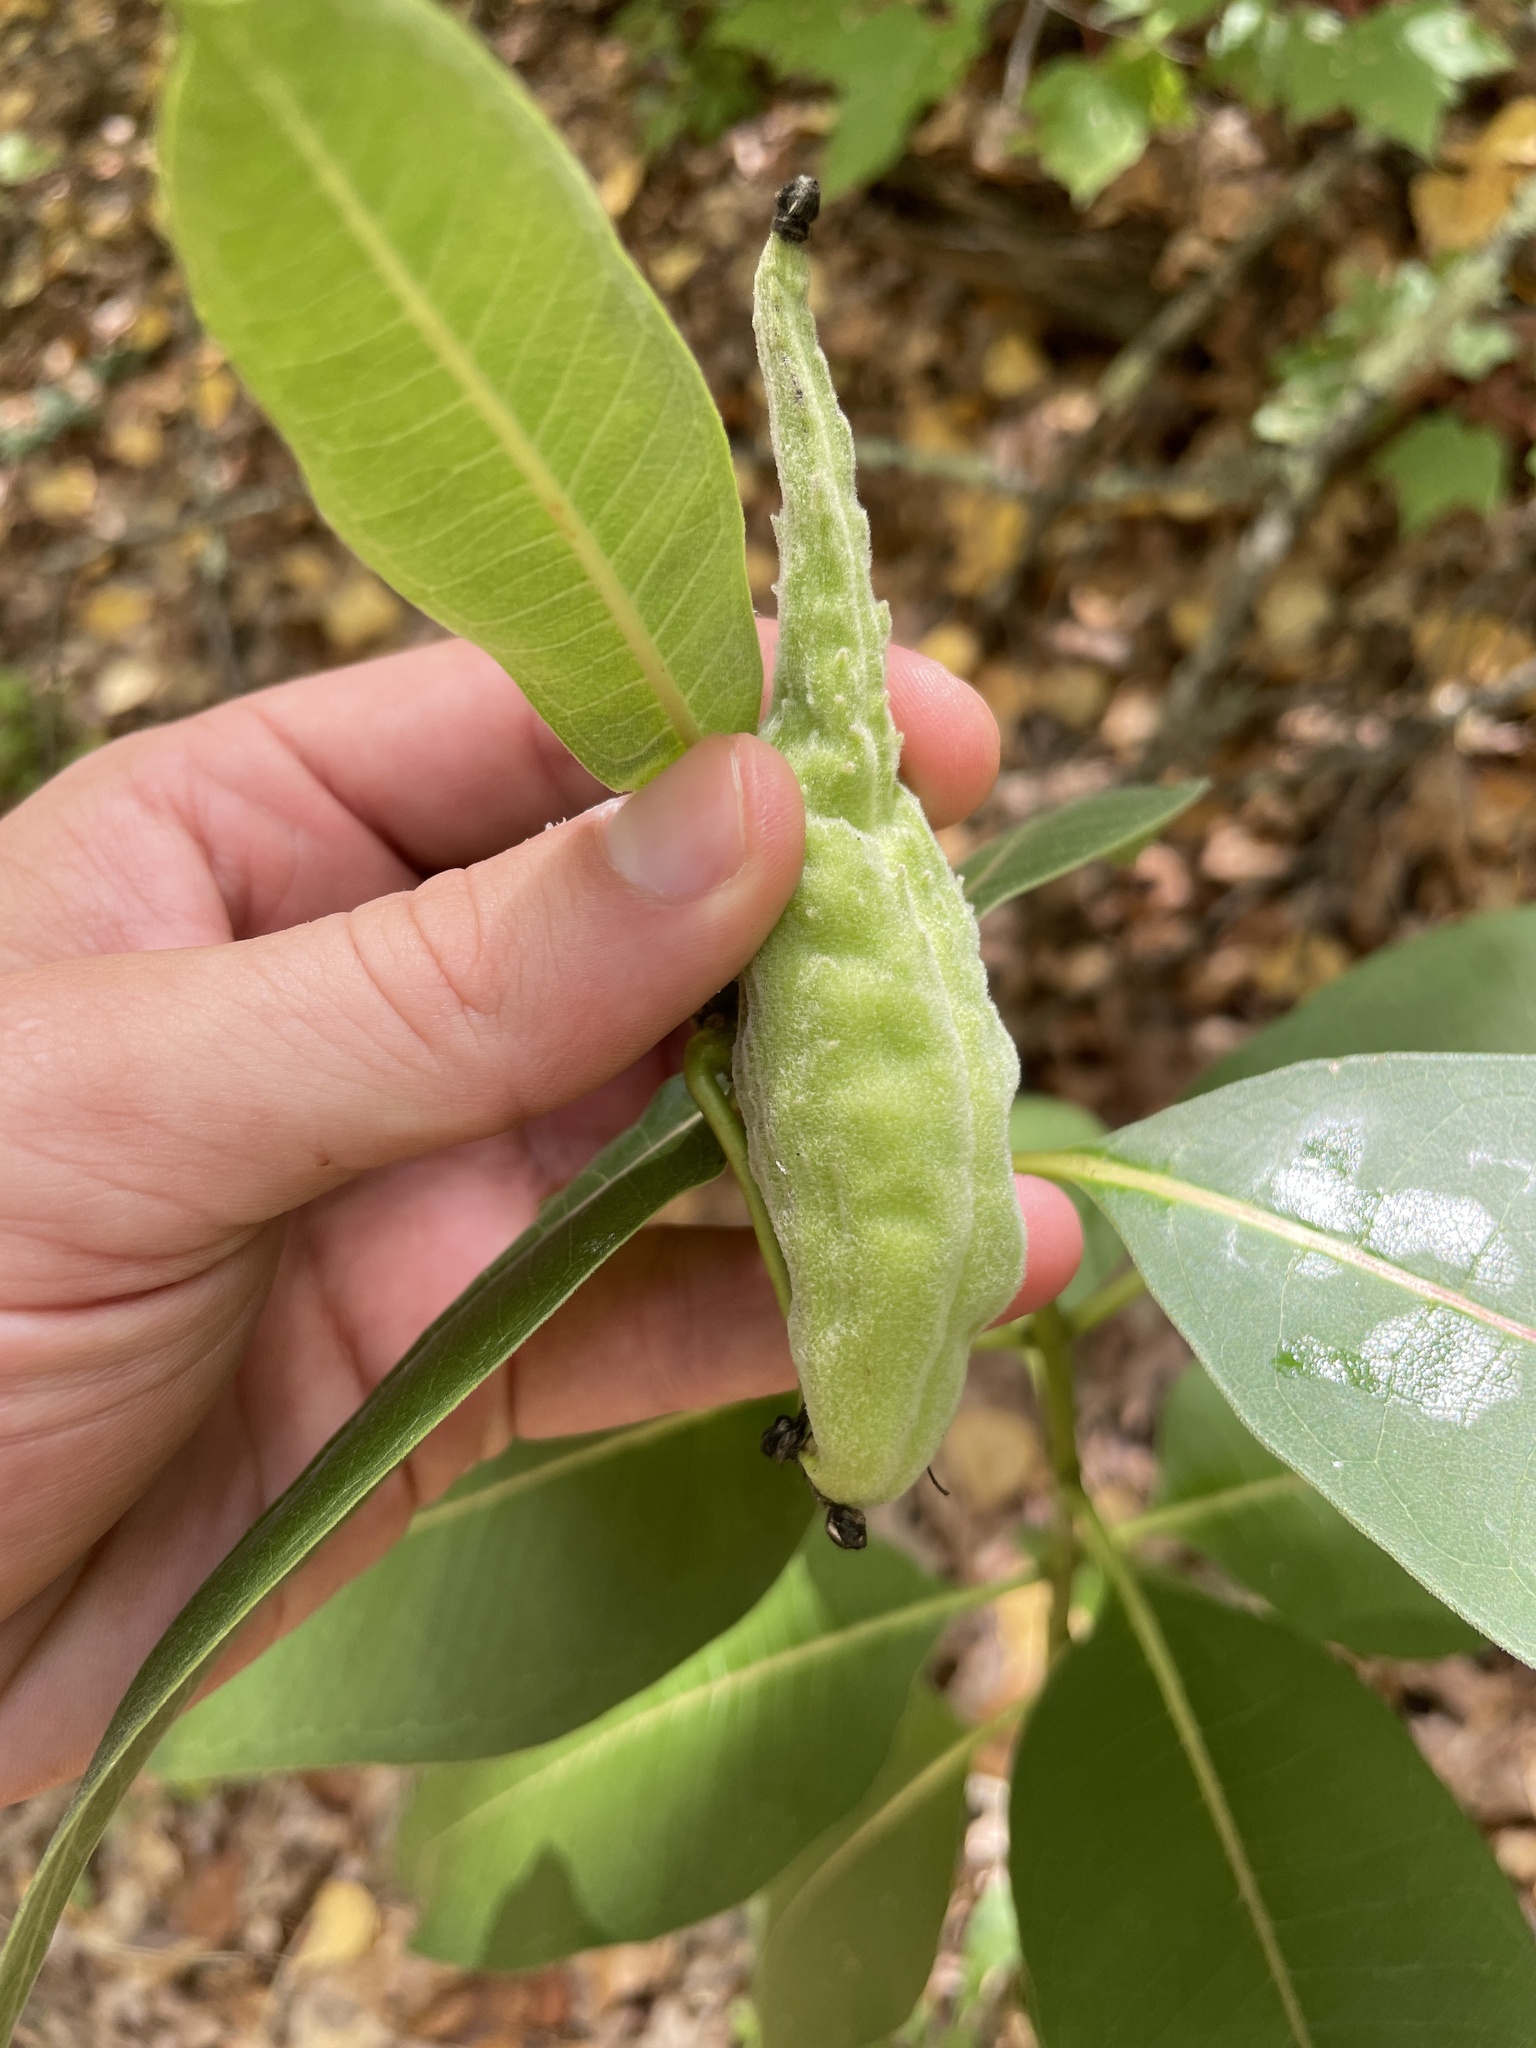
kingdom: Plantae
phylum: Tracheophyta
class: Magnoliopsida
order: Gentianales
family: Apocynaceae
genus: Asclepias
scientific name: Asclepias syriaca
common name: Common milkweed
